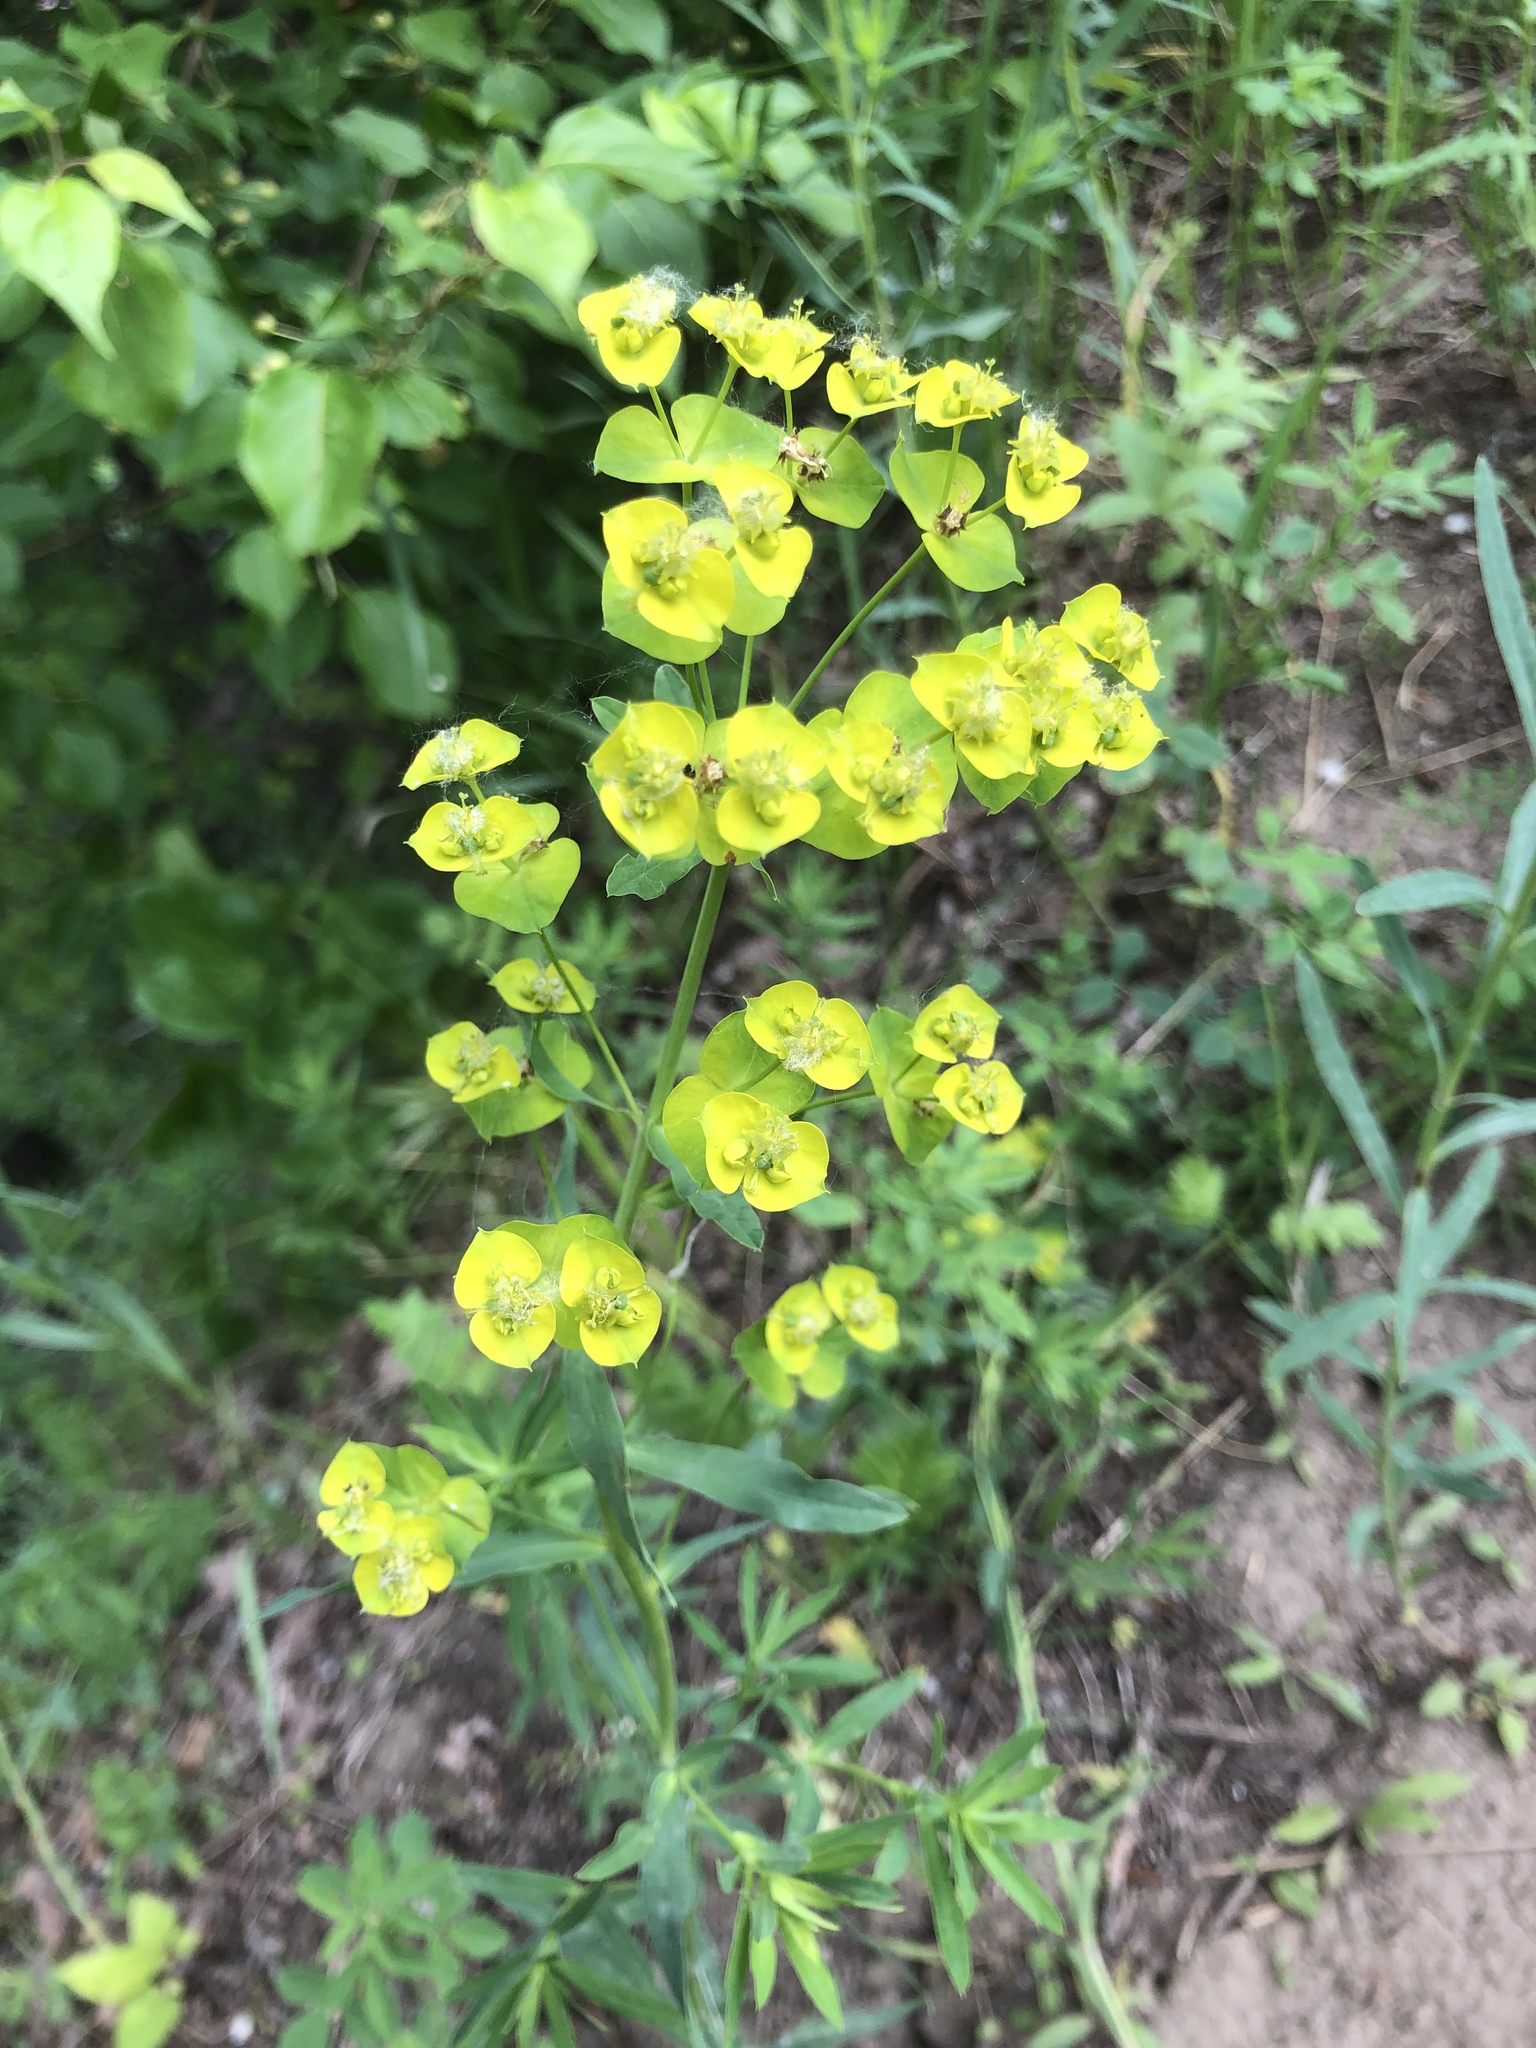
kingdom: Plantae
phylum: Tracheophyta
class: Magnoliopsida
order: Malpighiales
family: Euphorbiaceae
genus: Euphorbia
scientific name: Euphorbia virgata
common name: Leafy spurge
